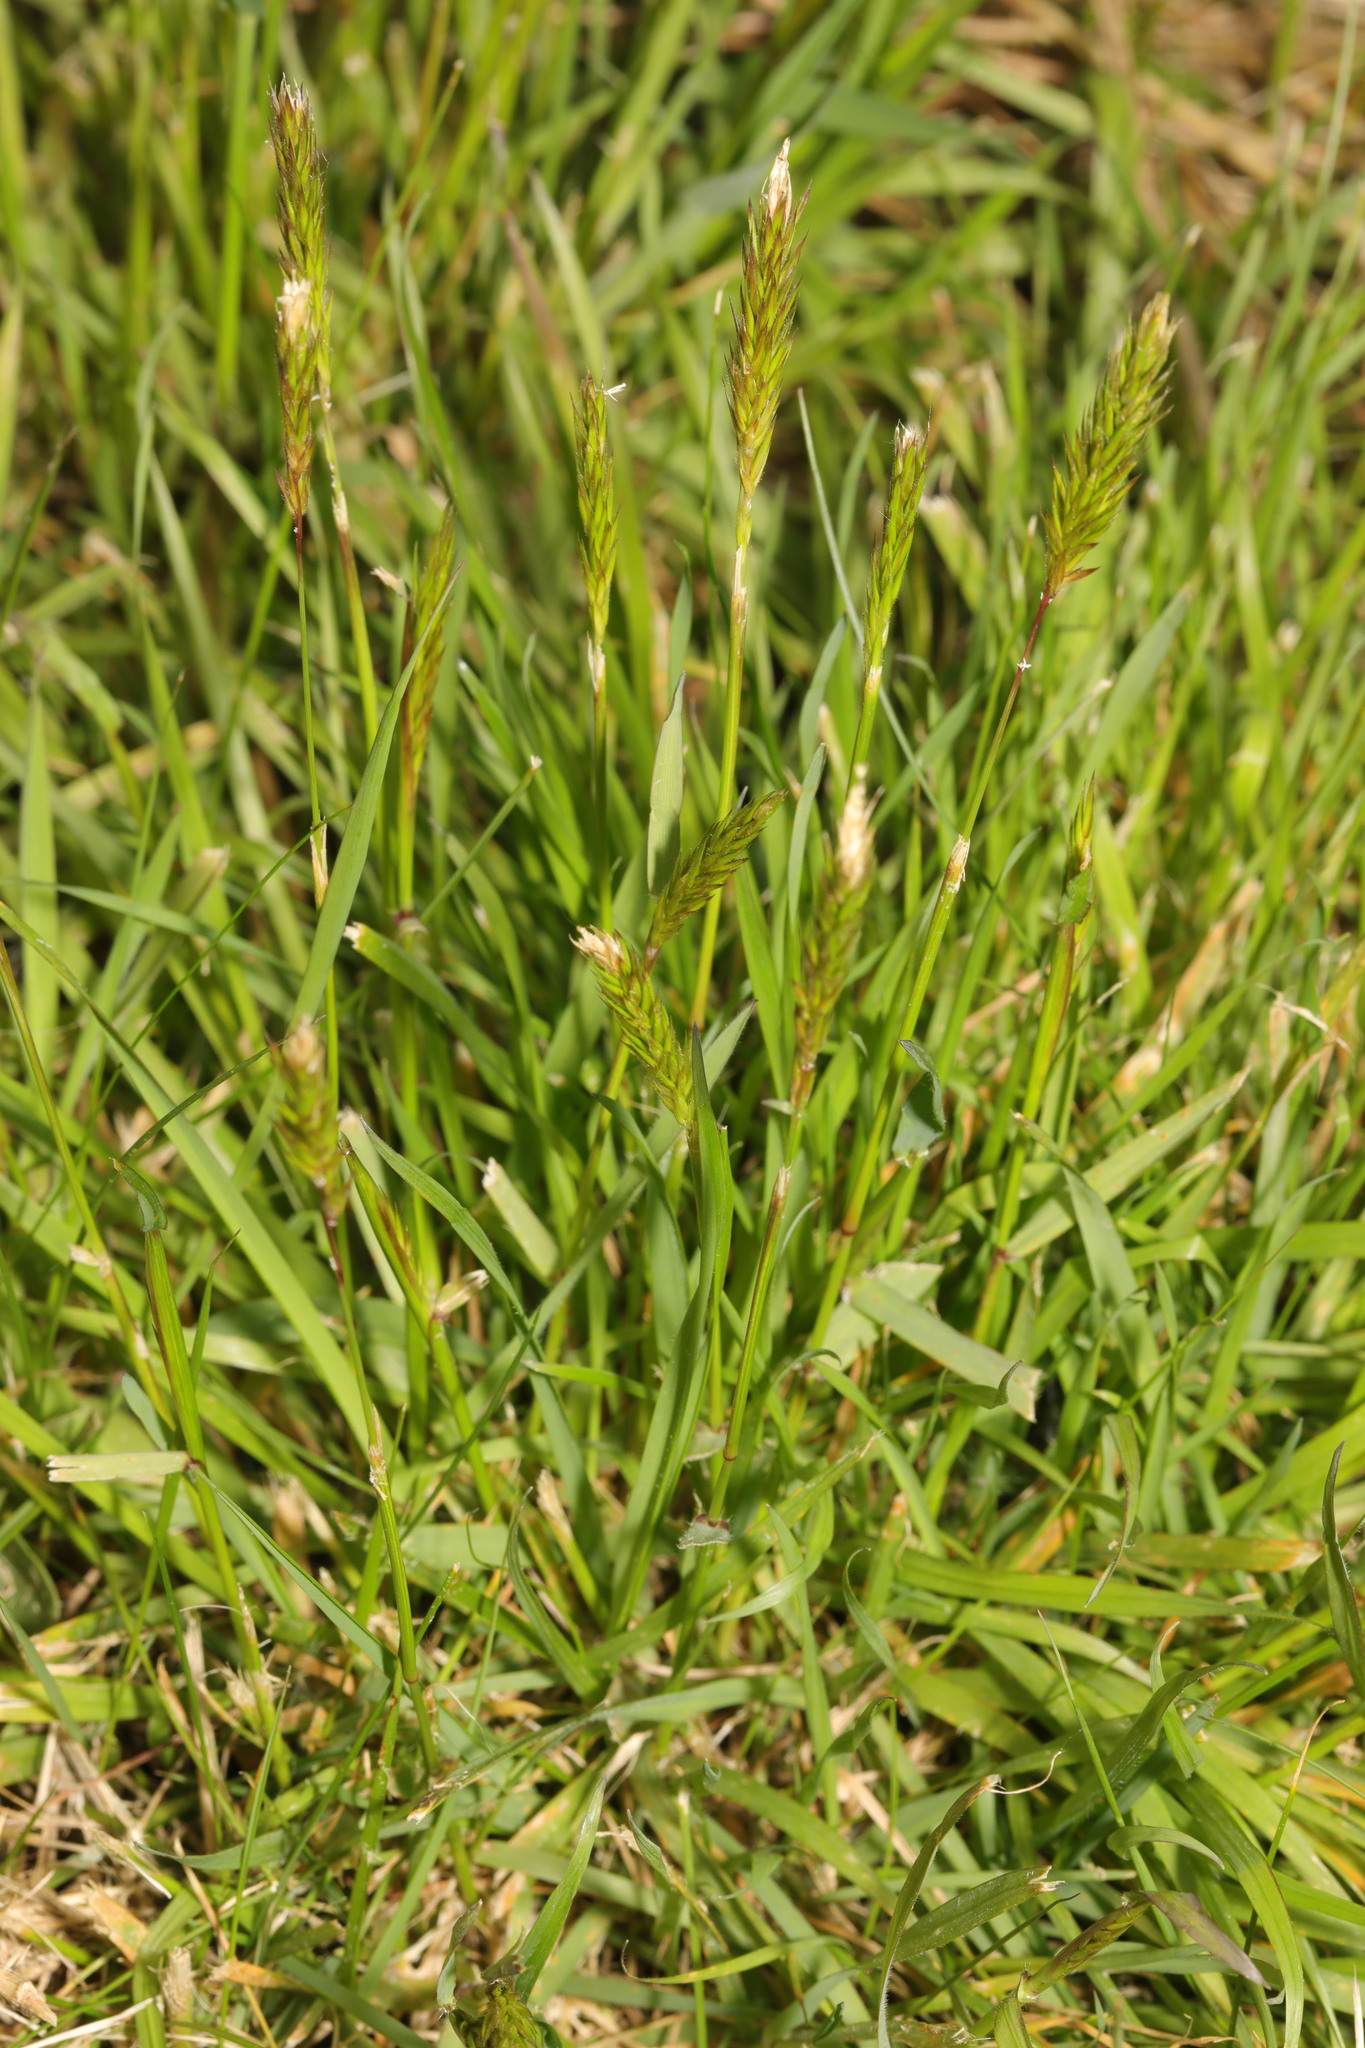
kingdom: Plantae
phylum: Tracheophyta
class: Liliopsida
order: Poales
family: Poaceae
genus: Anthoxanthum
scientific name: Anthoxanthum odoratum
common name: Sweet vernalgrass
